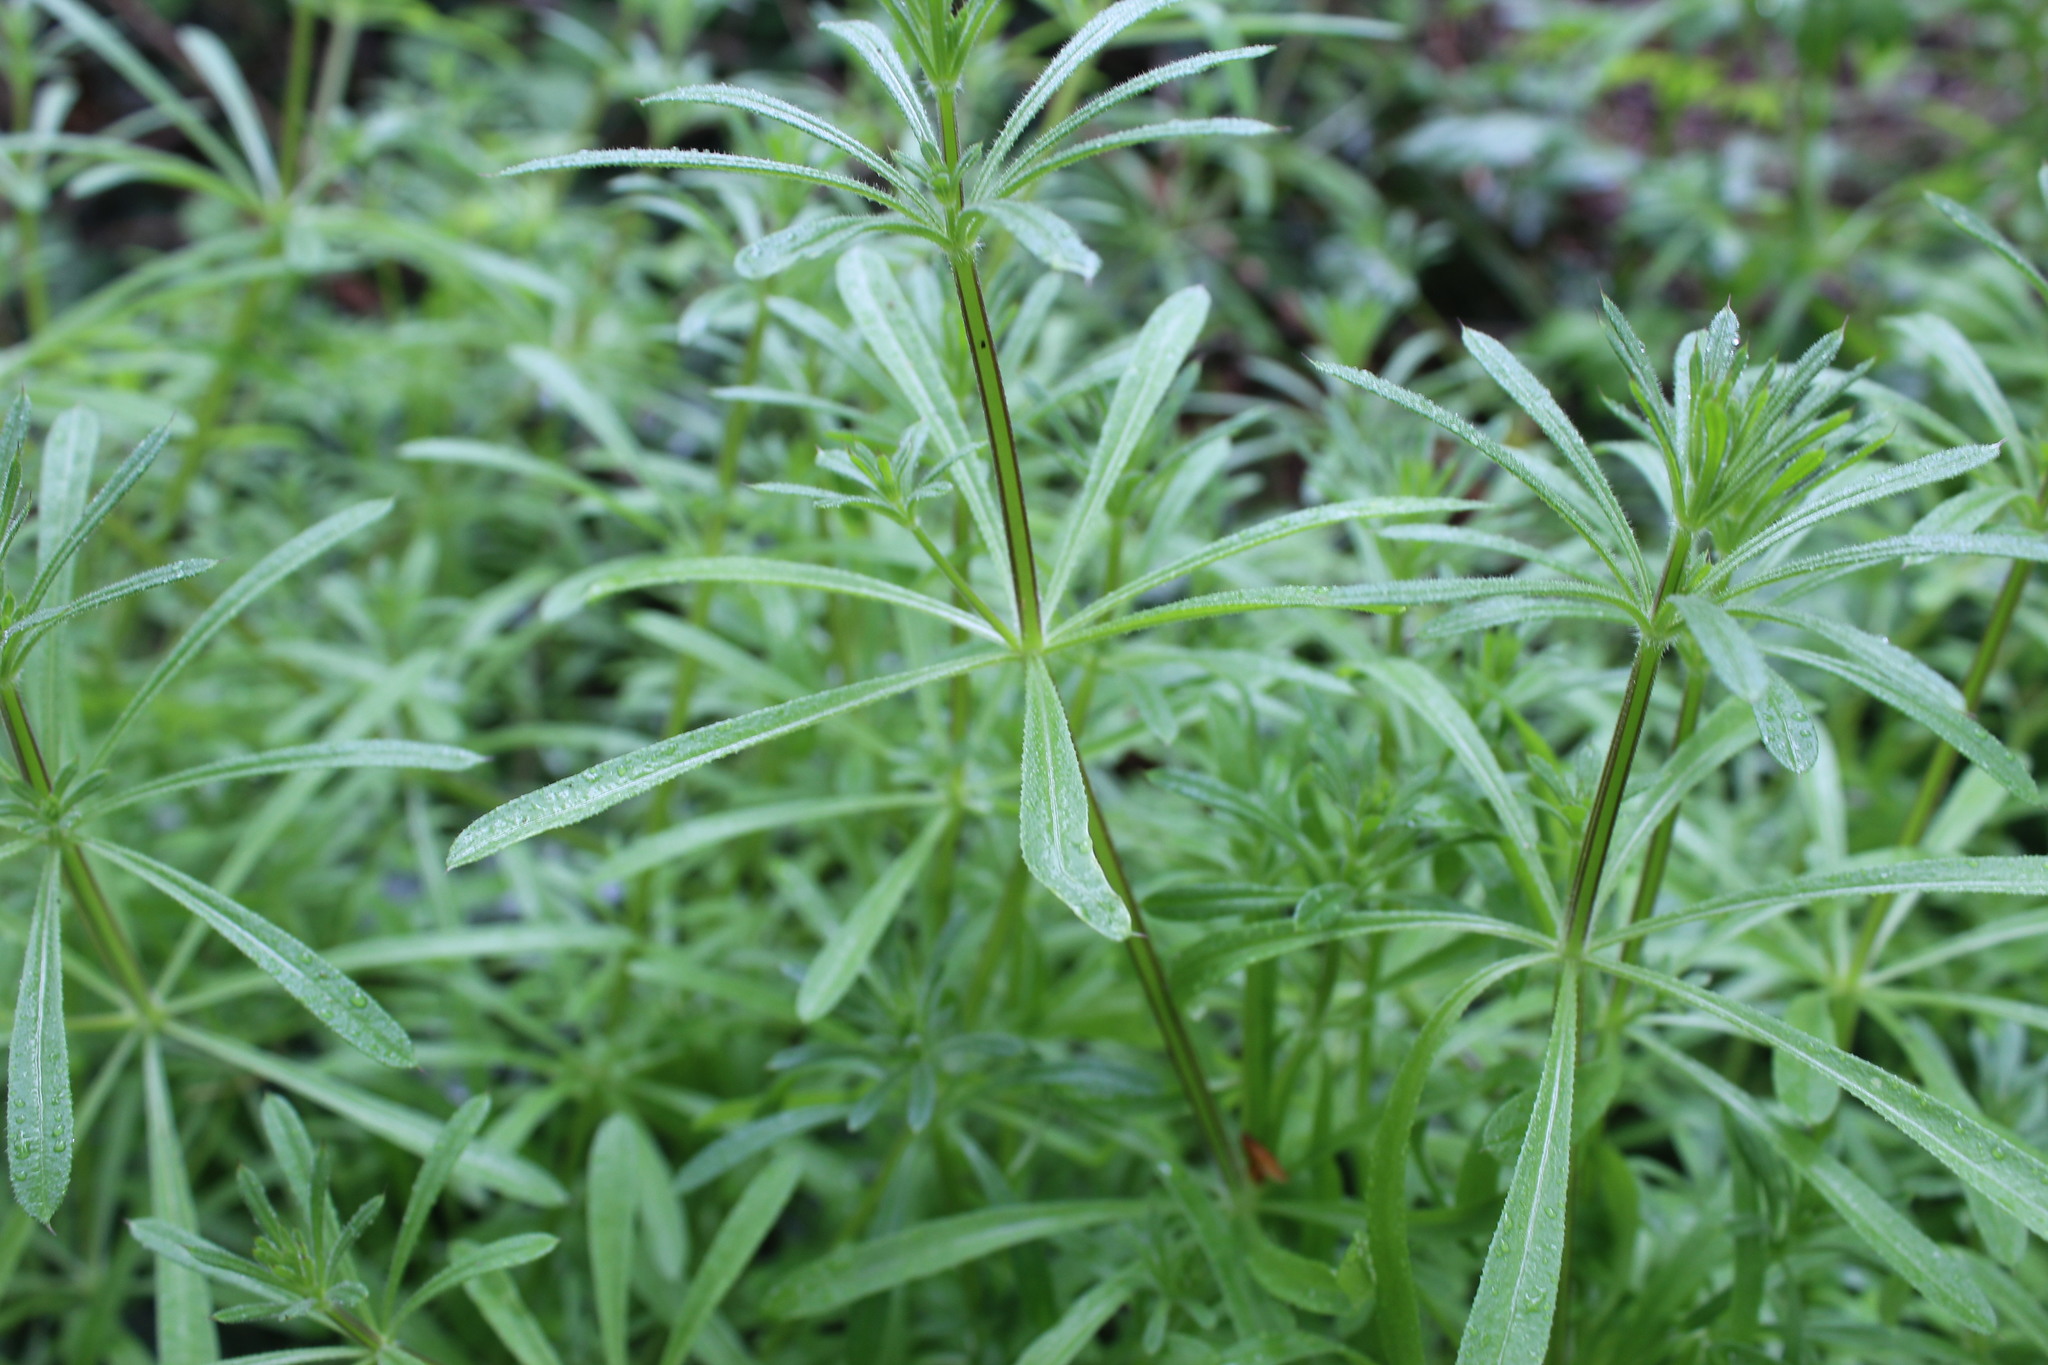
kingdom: Plantae
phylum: Tracheophyta
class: Magnoliopsida
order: Gentianales
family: Rubiaceae
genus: Galium
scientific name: Galium aparine
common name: Cleavers
